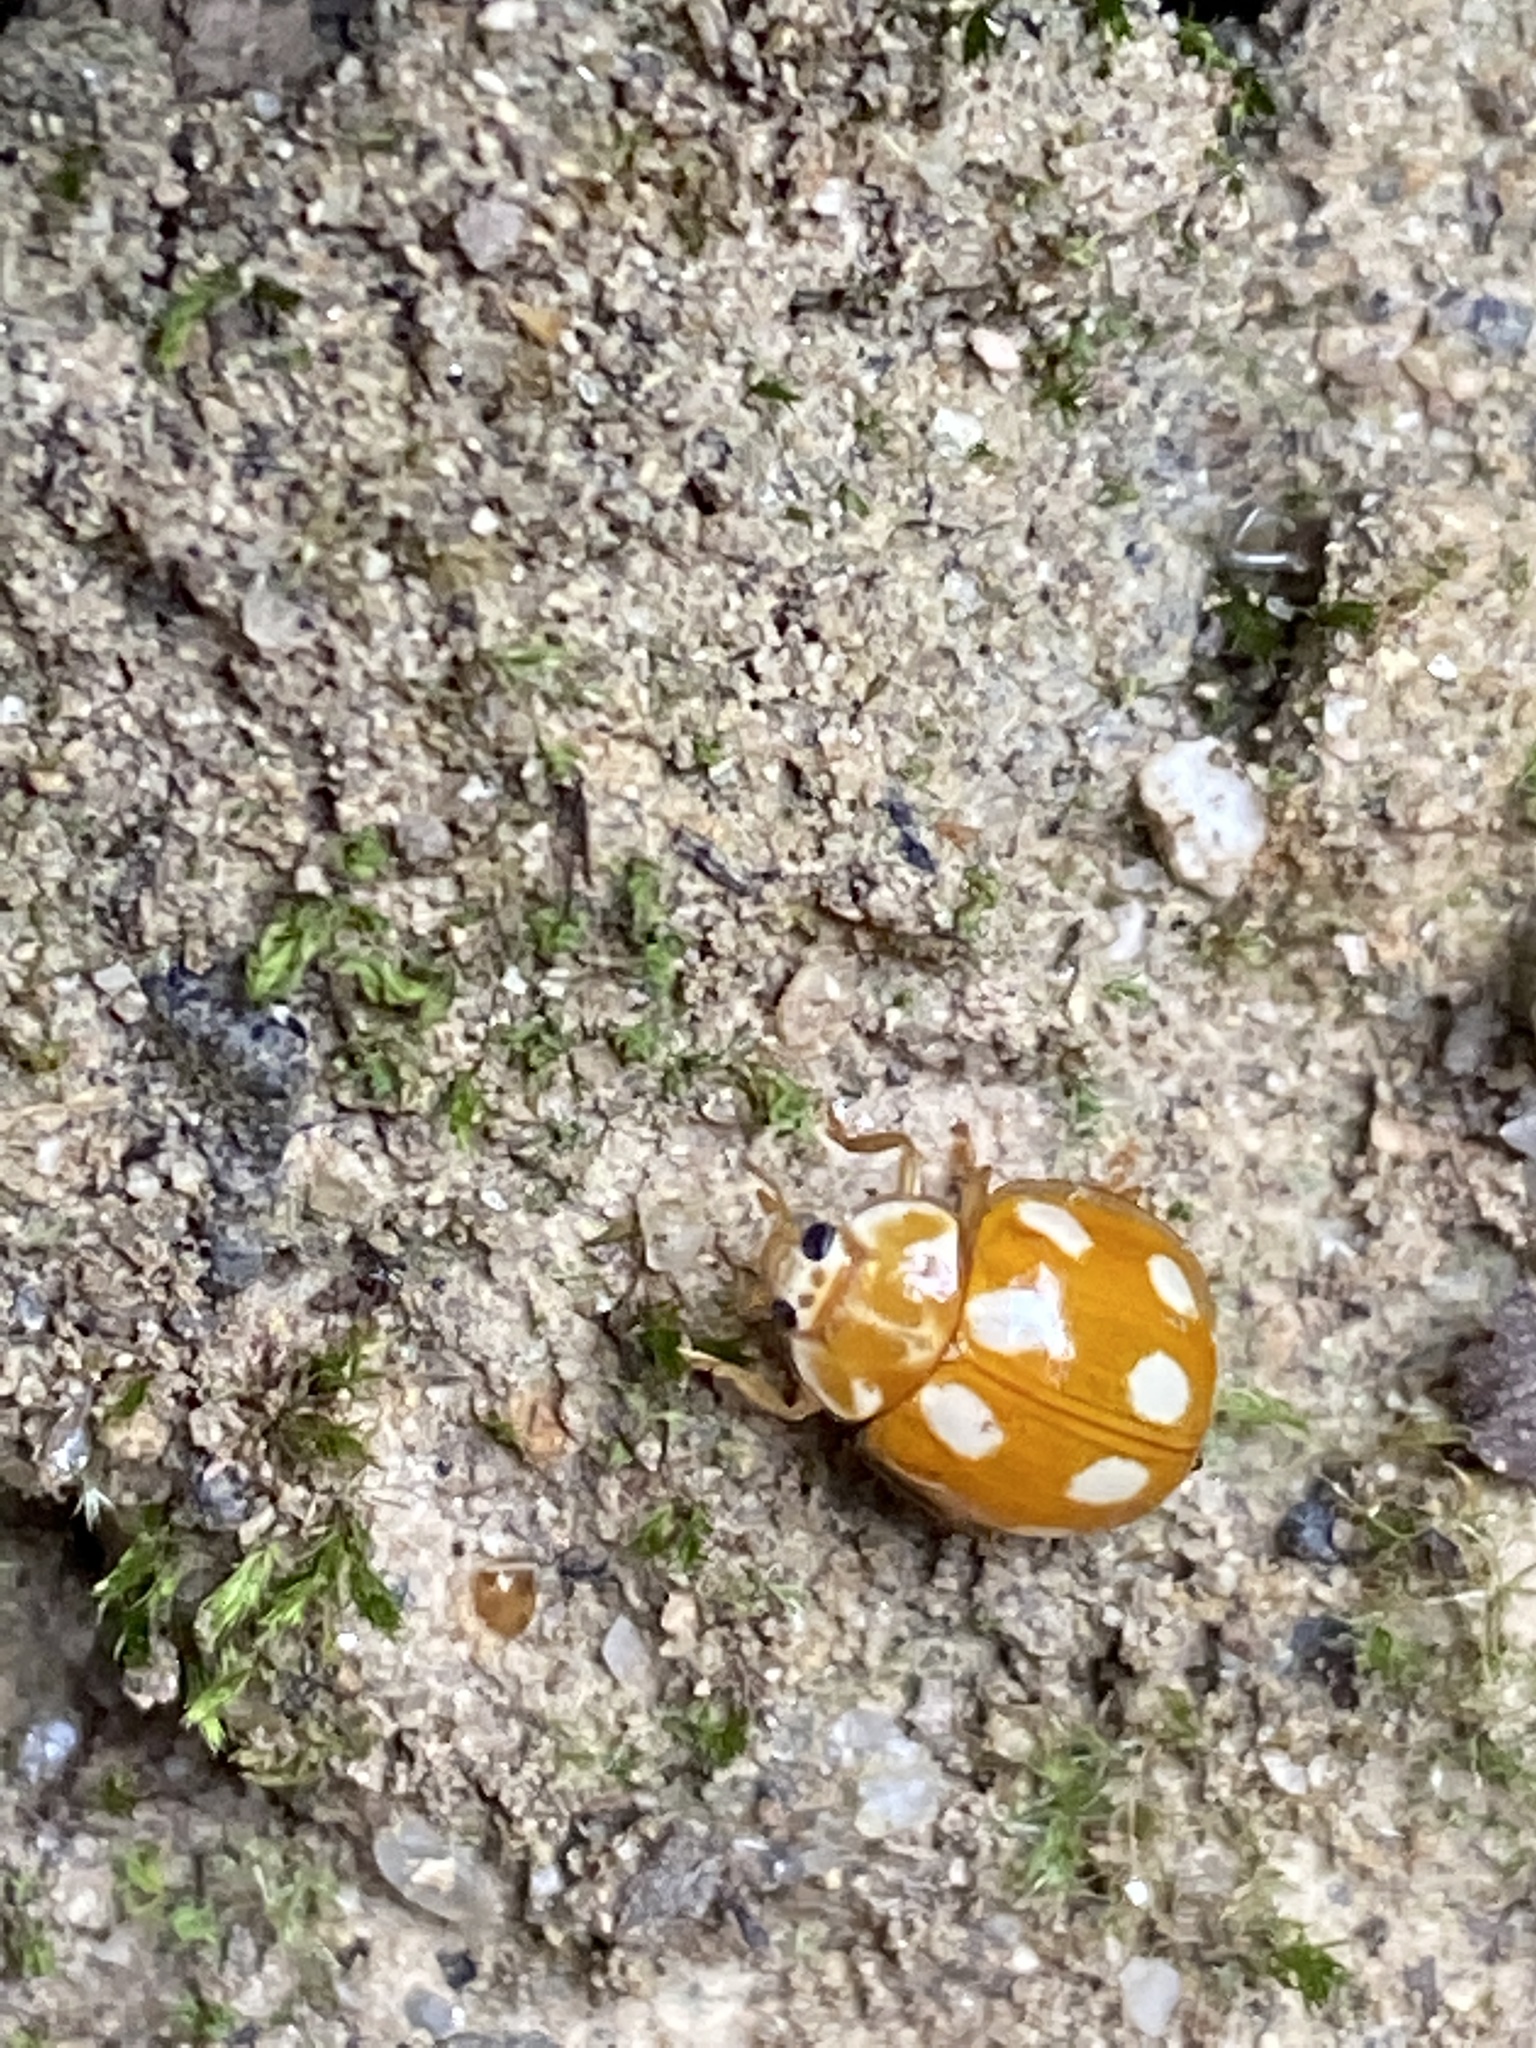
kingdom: Animalia
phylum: Arthropoda
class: Insecta
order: Coleoptera
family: Coccinellidae
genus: Calvia
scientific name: Calvia decemguttata
